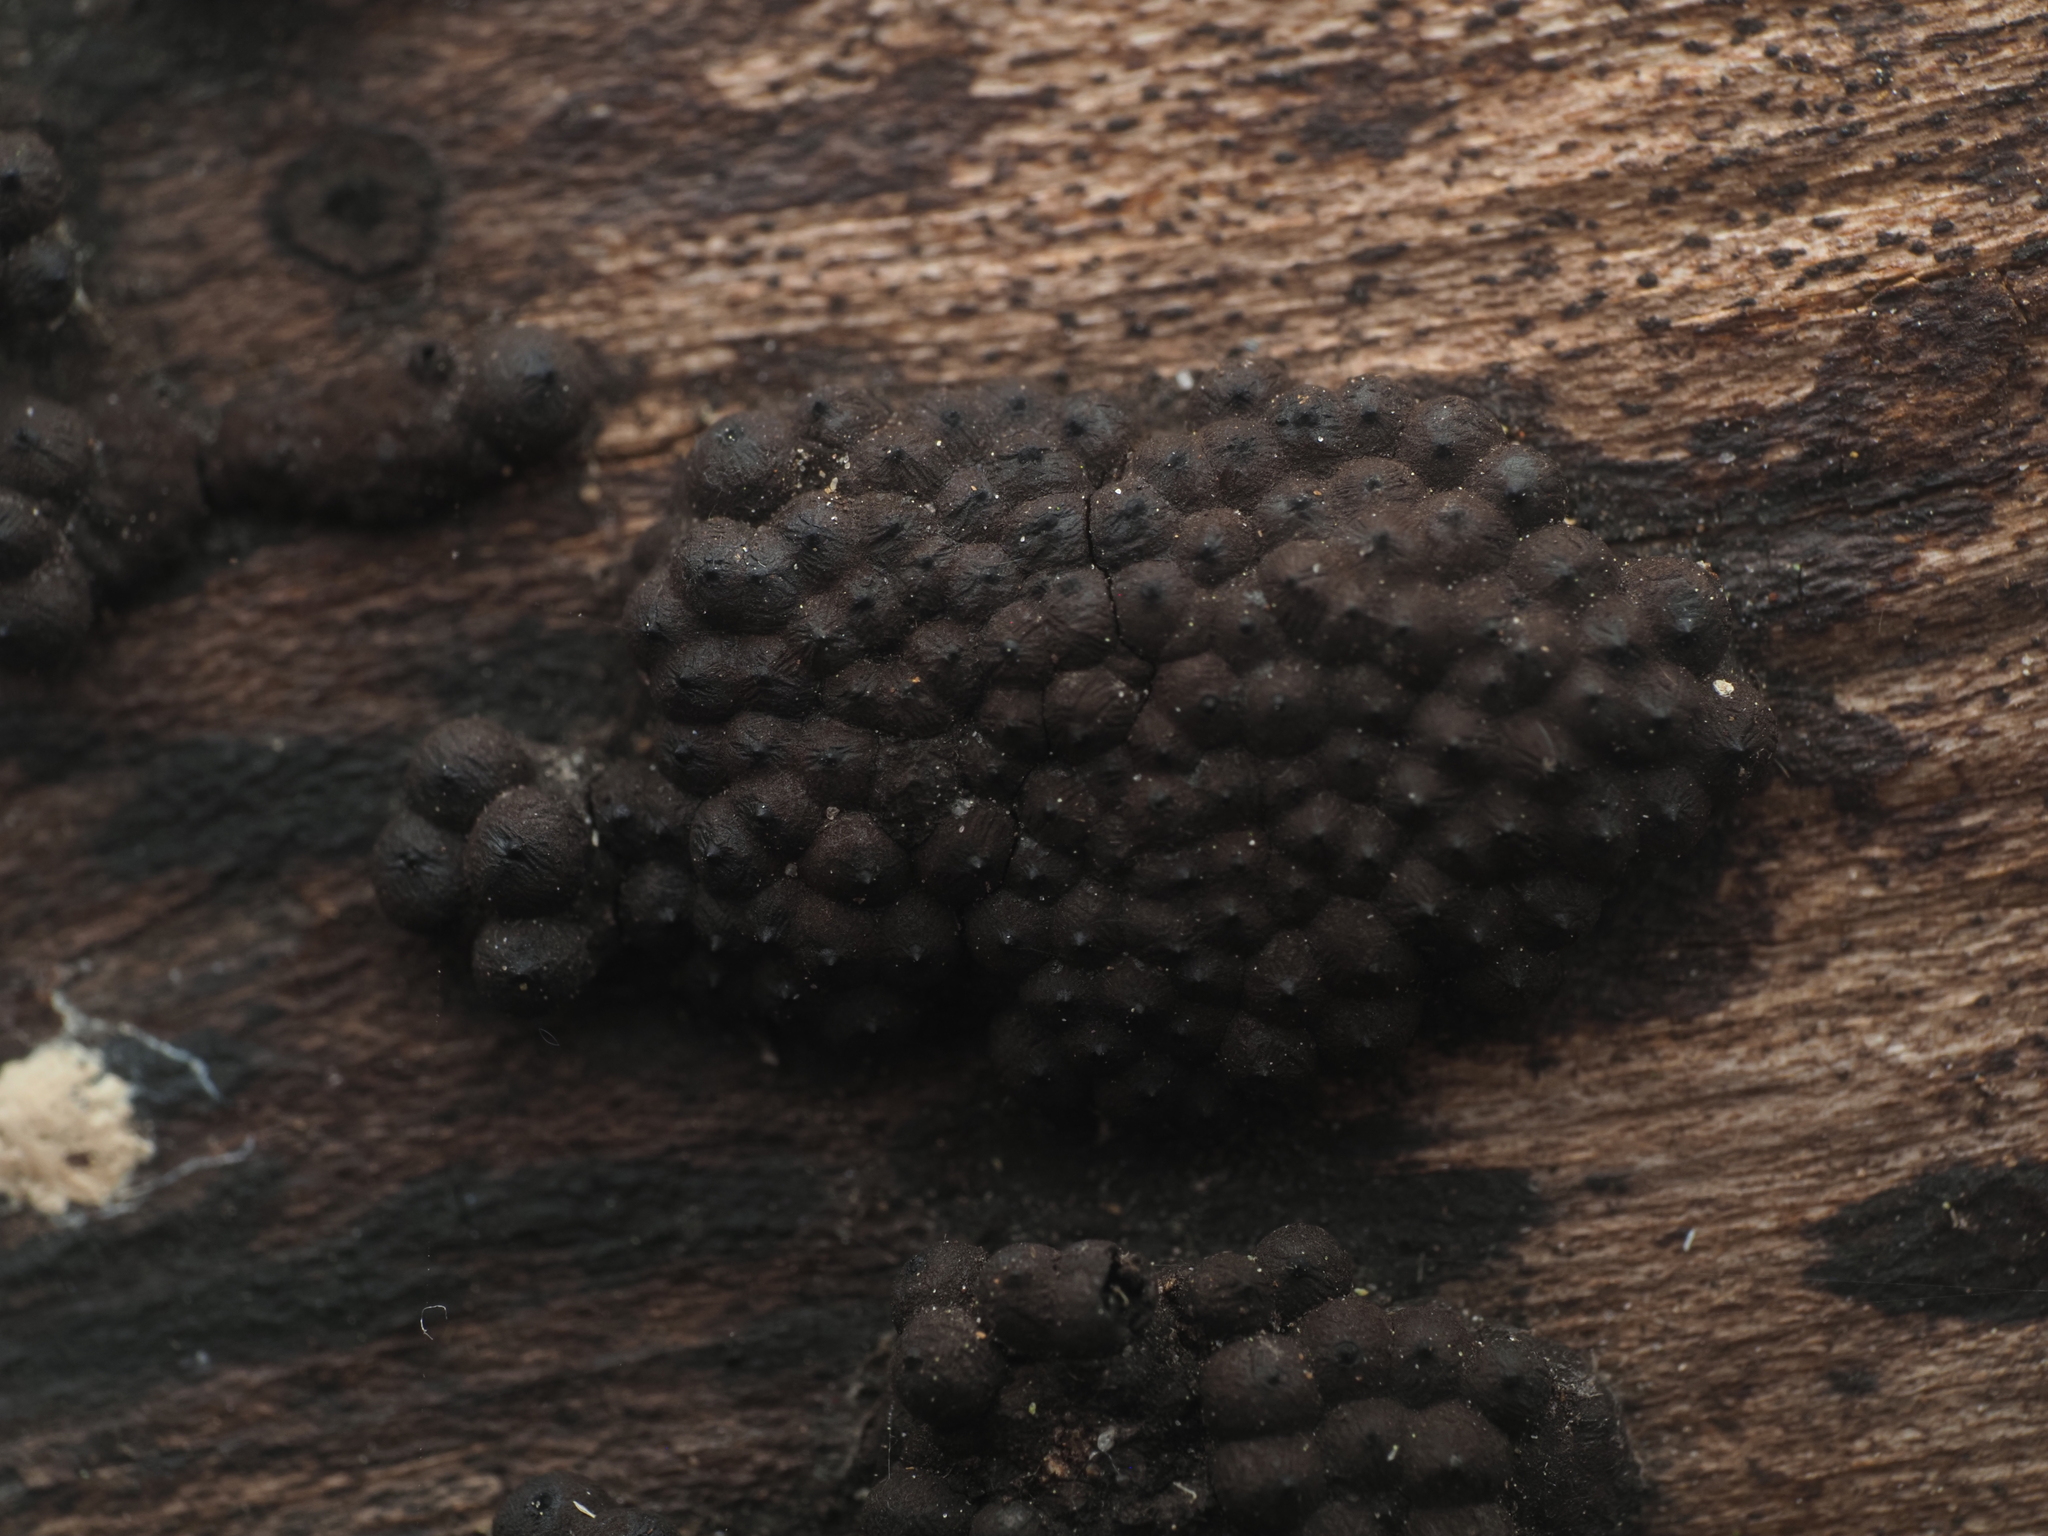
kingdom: Fungi
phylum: Ascomycota
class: Sordariomycetes
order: Xylariales
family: Hypoxylaceae
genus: Jackrogersella
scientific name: Jackrogersella multiformis
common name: Birch woodwart
